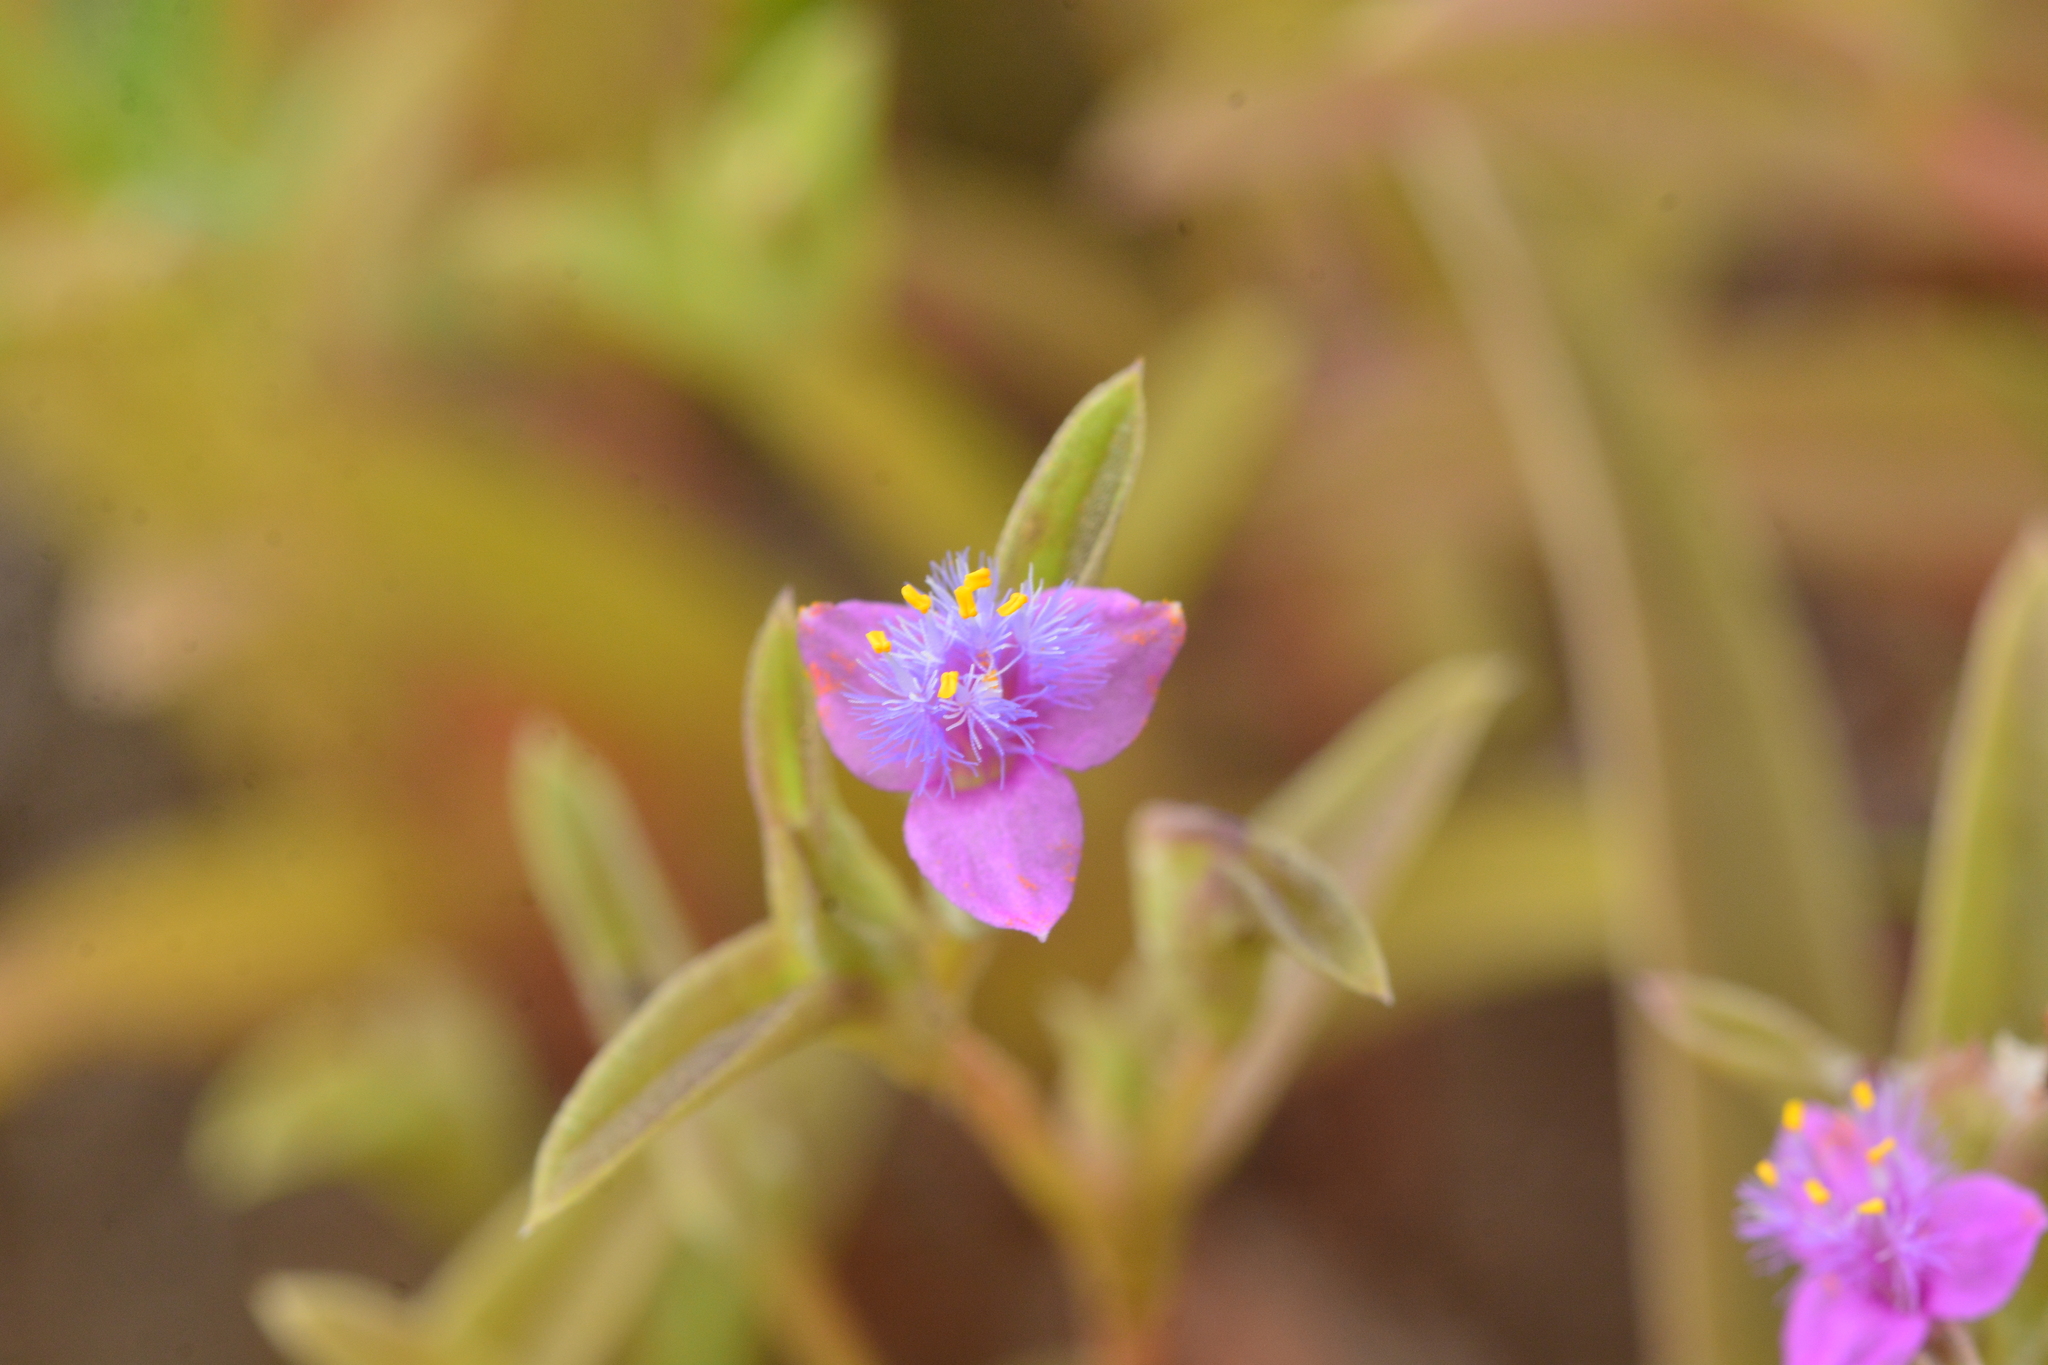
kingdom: Plantae
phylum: Tracheophyta
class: Liliopsida
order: Commelinales
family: Commelinaceae
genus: Cyanotis
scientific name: Cyanotis fasciculata
